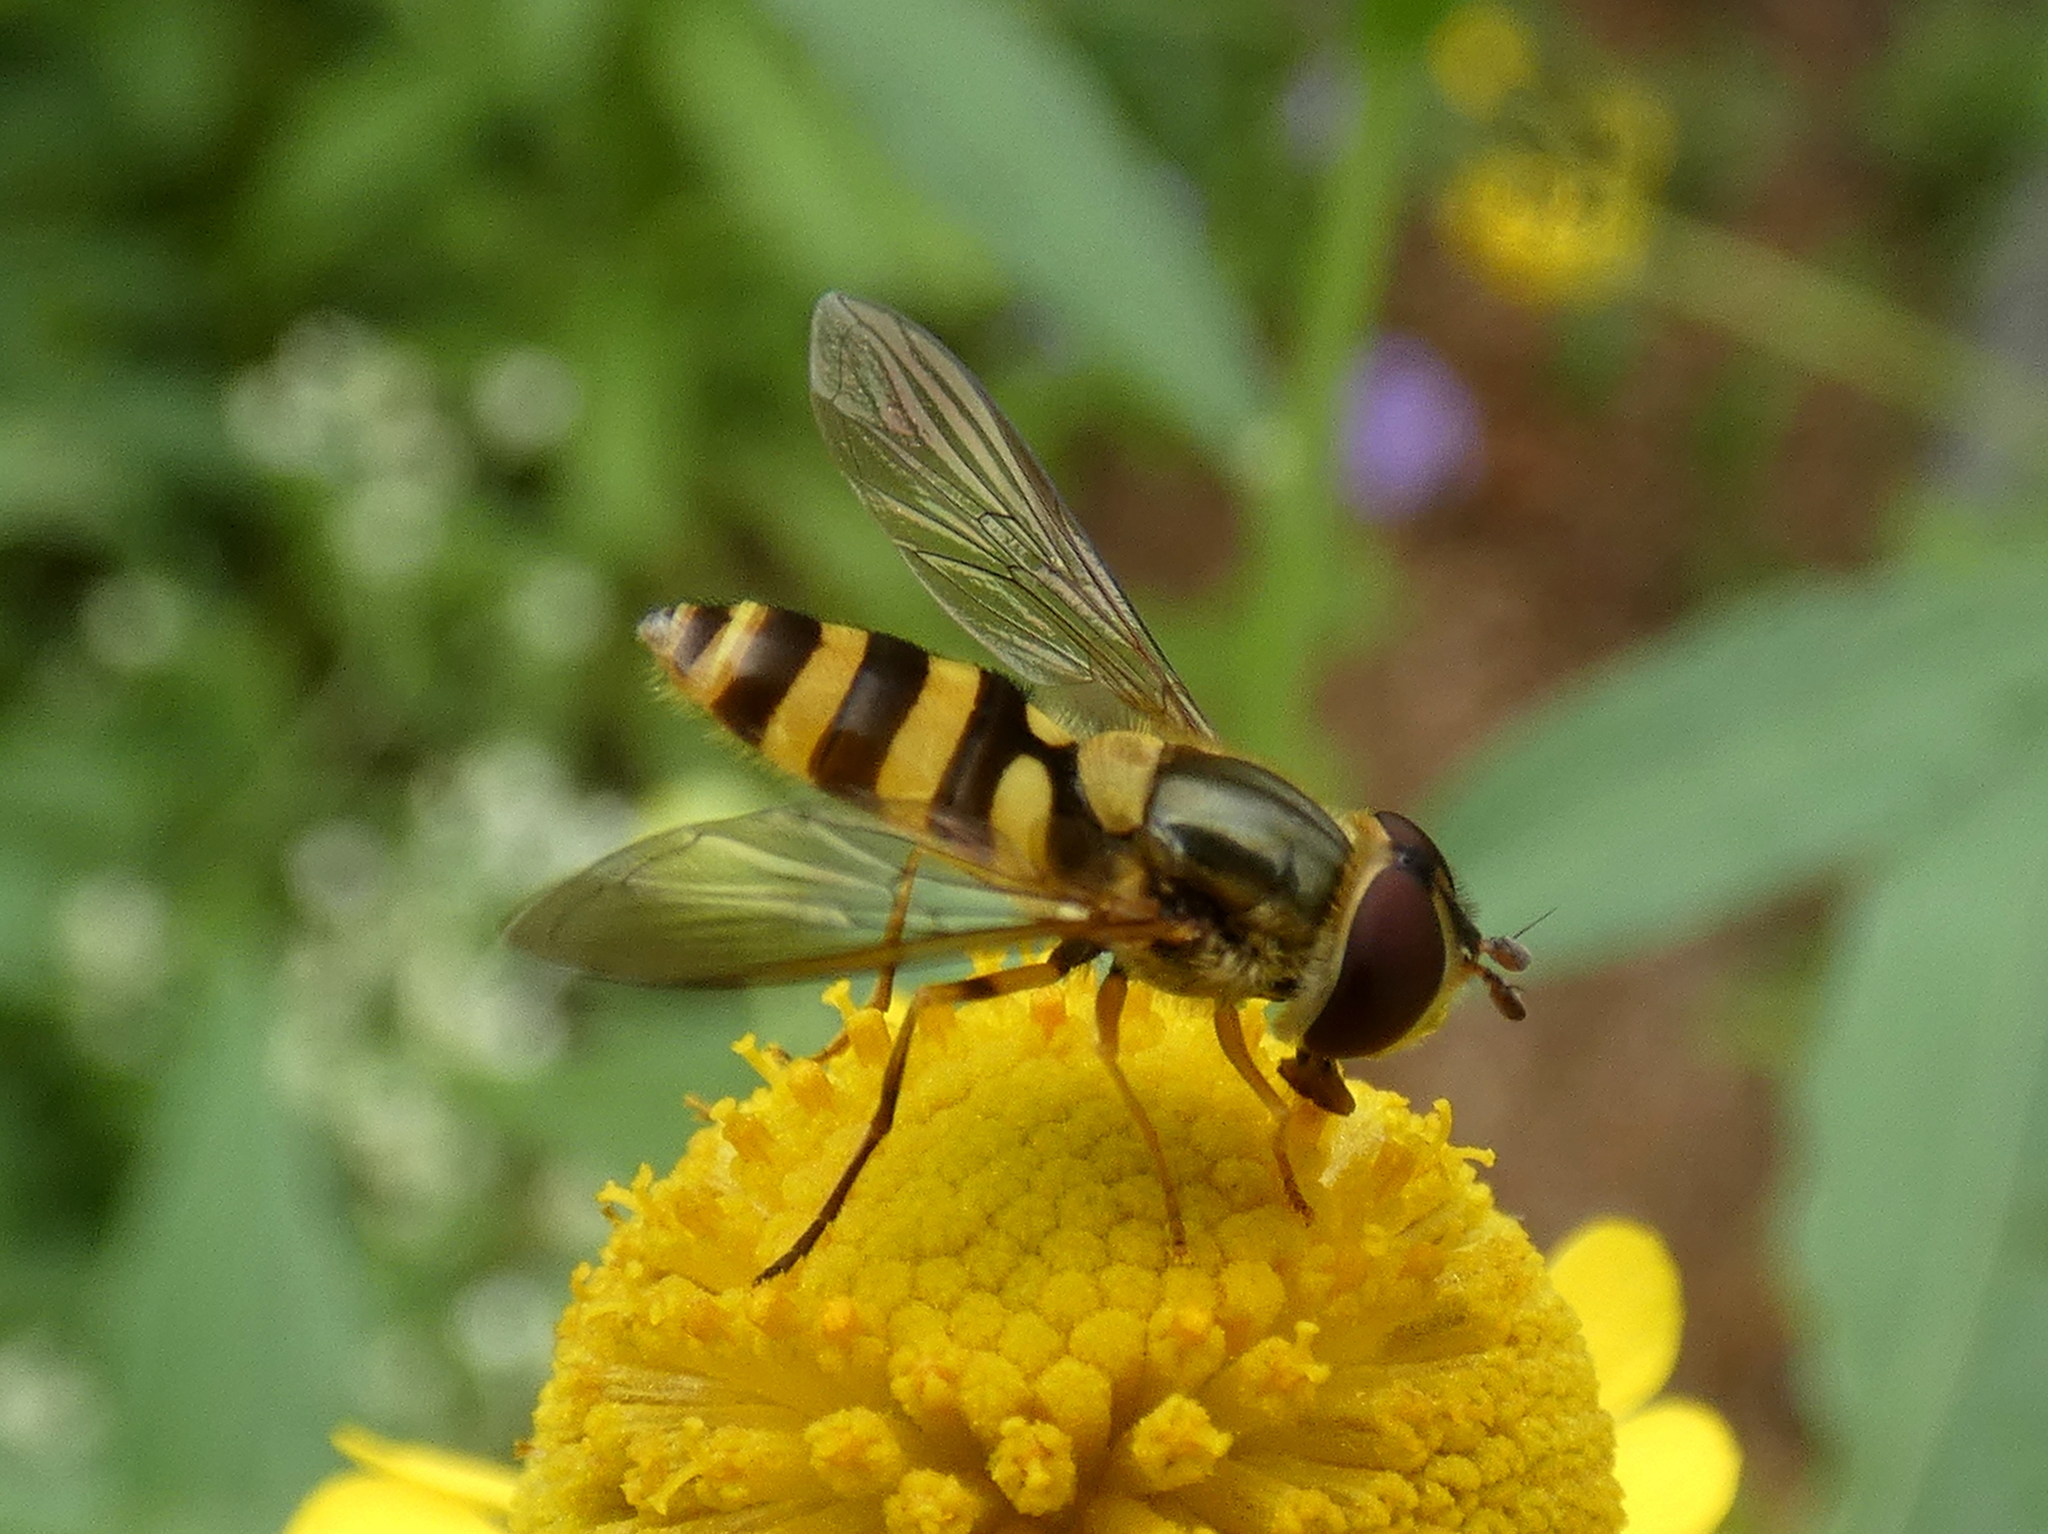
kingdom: Animalia
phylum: Arthropoda
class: Insecta
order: Diptera
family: Syrphidae
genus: Syrphus
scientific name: Syrphus rectus
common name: Yellow-legged flower fly
